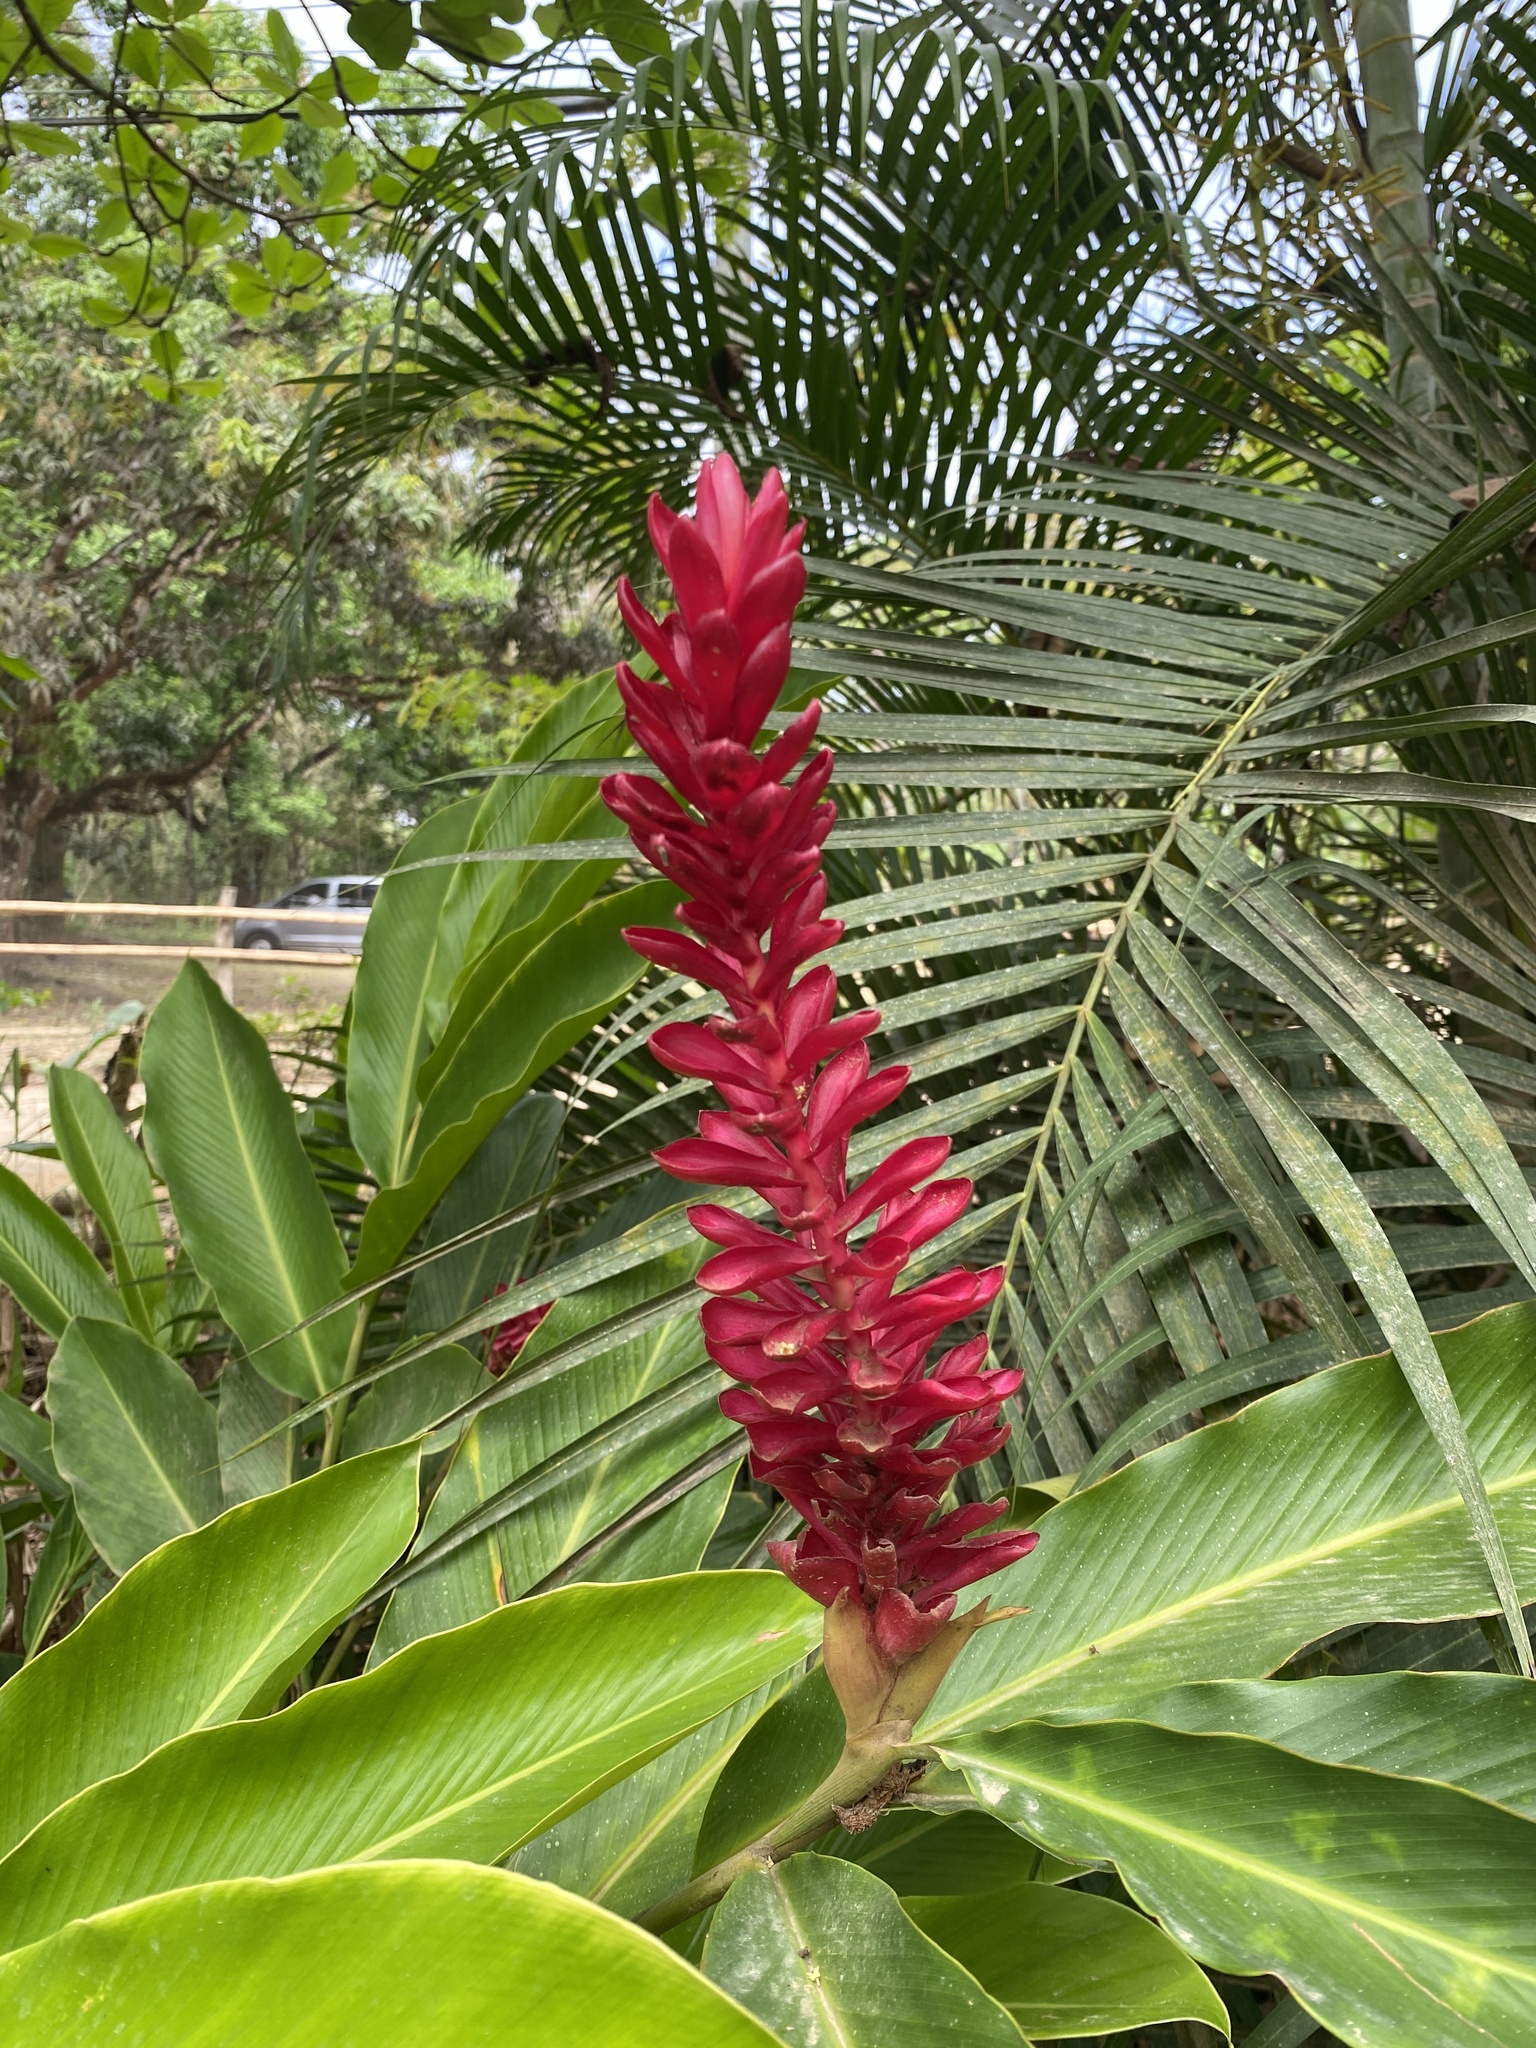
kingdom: Plantae
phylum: Tracheophyta
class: Liliopsida
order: Zingiberales
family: Zingiberaceae
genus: Alpinia
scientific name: Alpinia purpurata
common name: Red ginger
